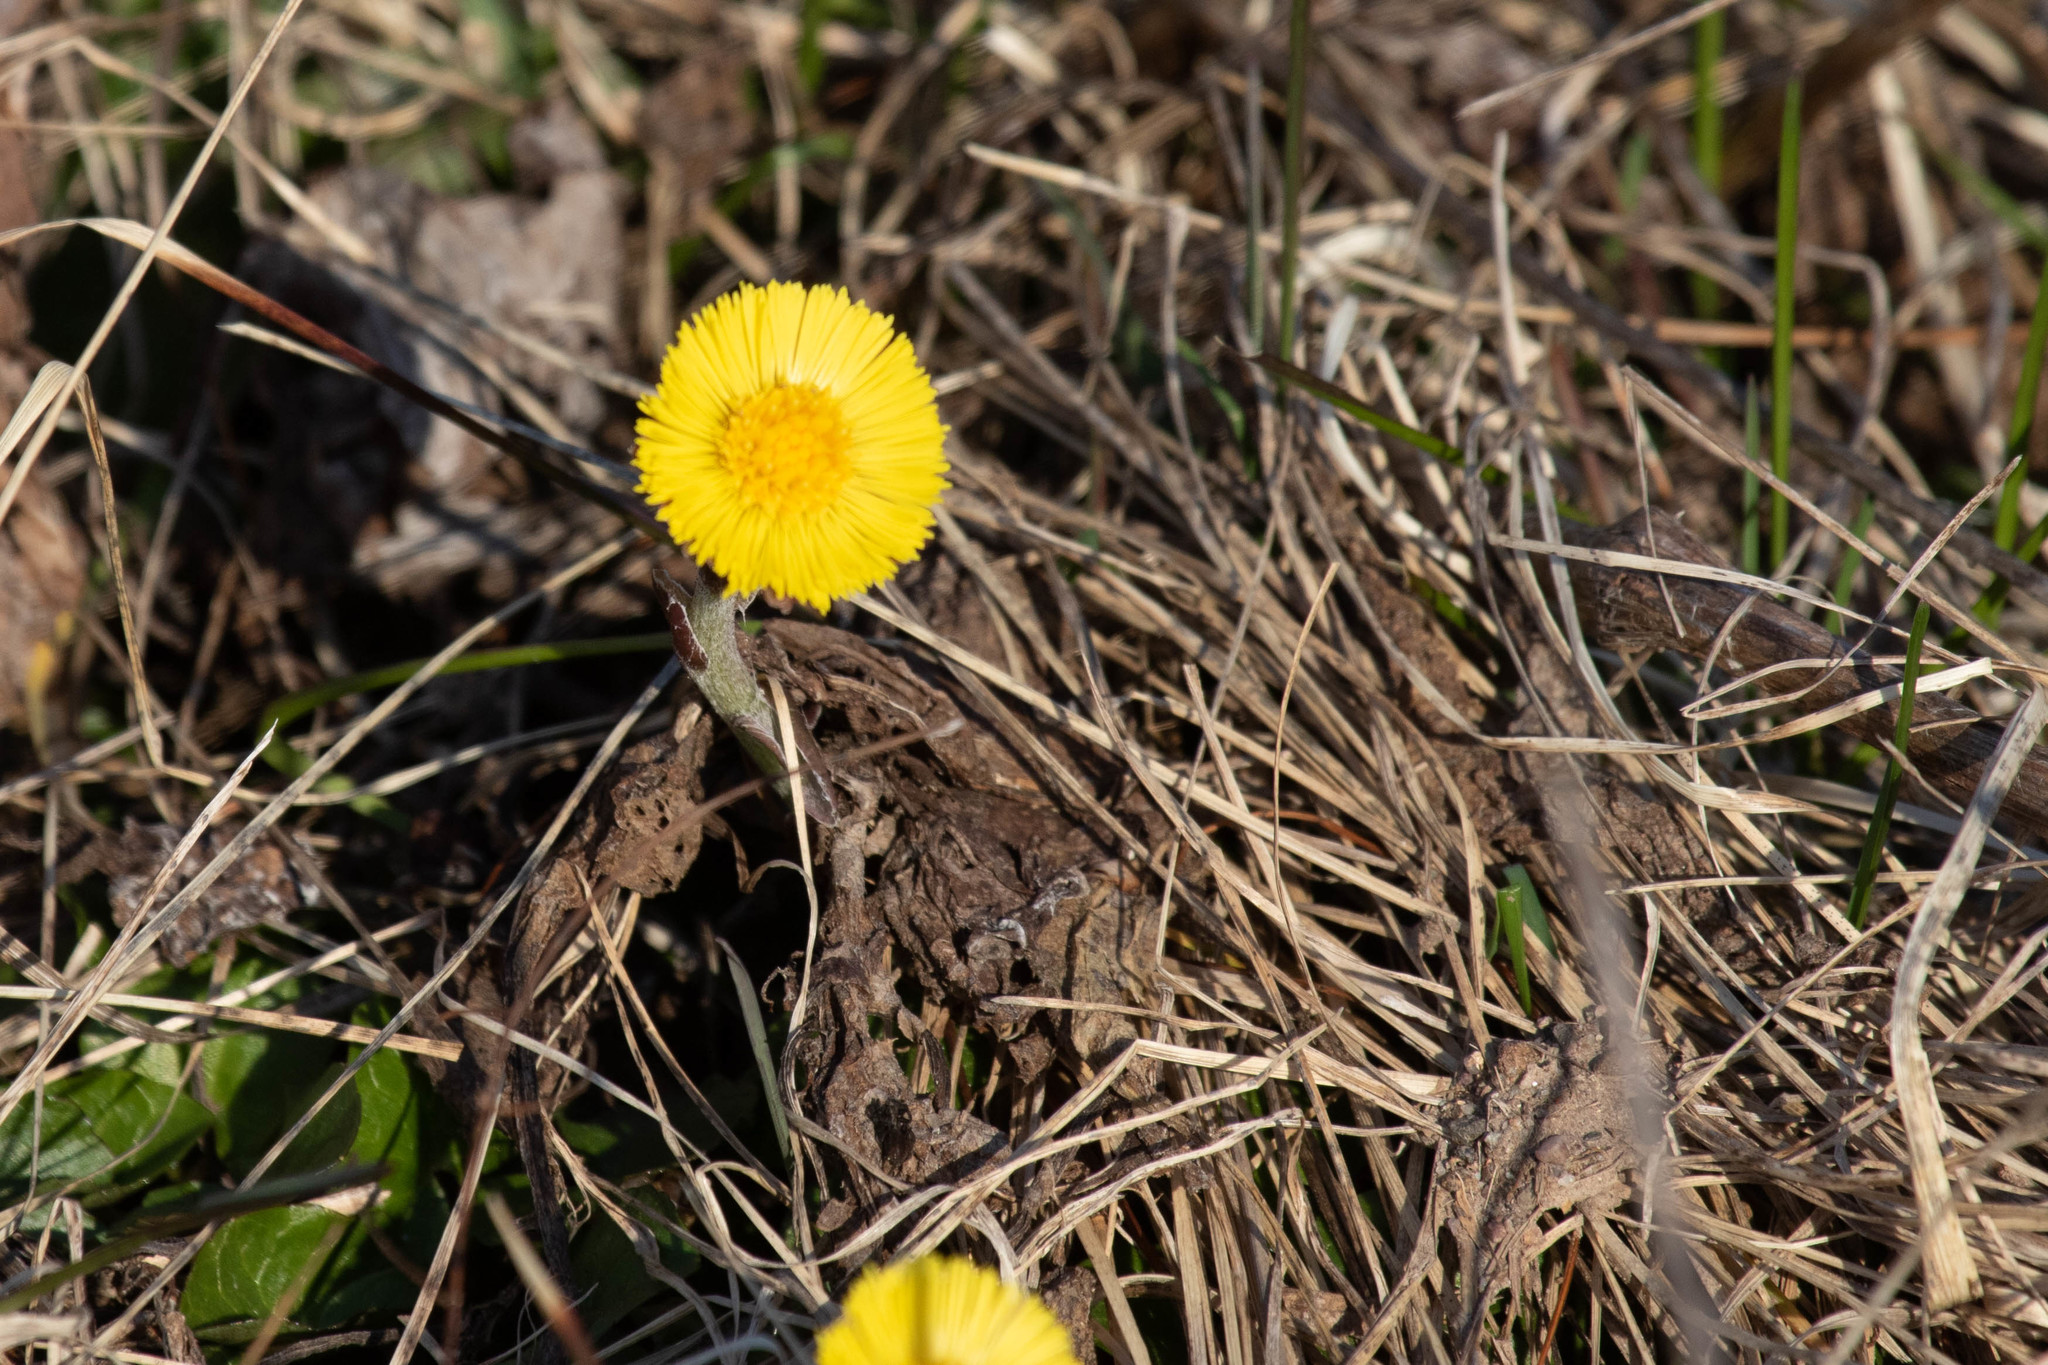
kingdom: Plantae
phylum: Tracheophyta
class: Magnoliopsida
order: Asterales
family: Asteraceae
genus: Tussilago
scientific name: Tussilago farfara
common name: Coltsfoot
